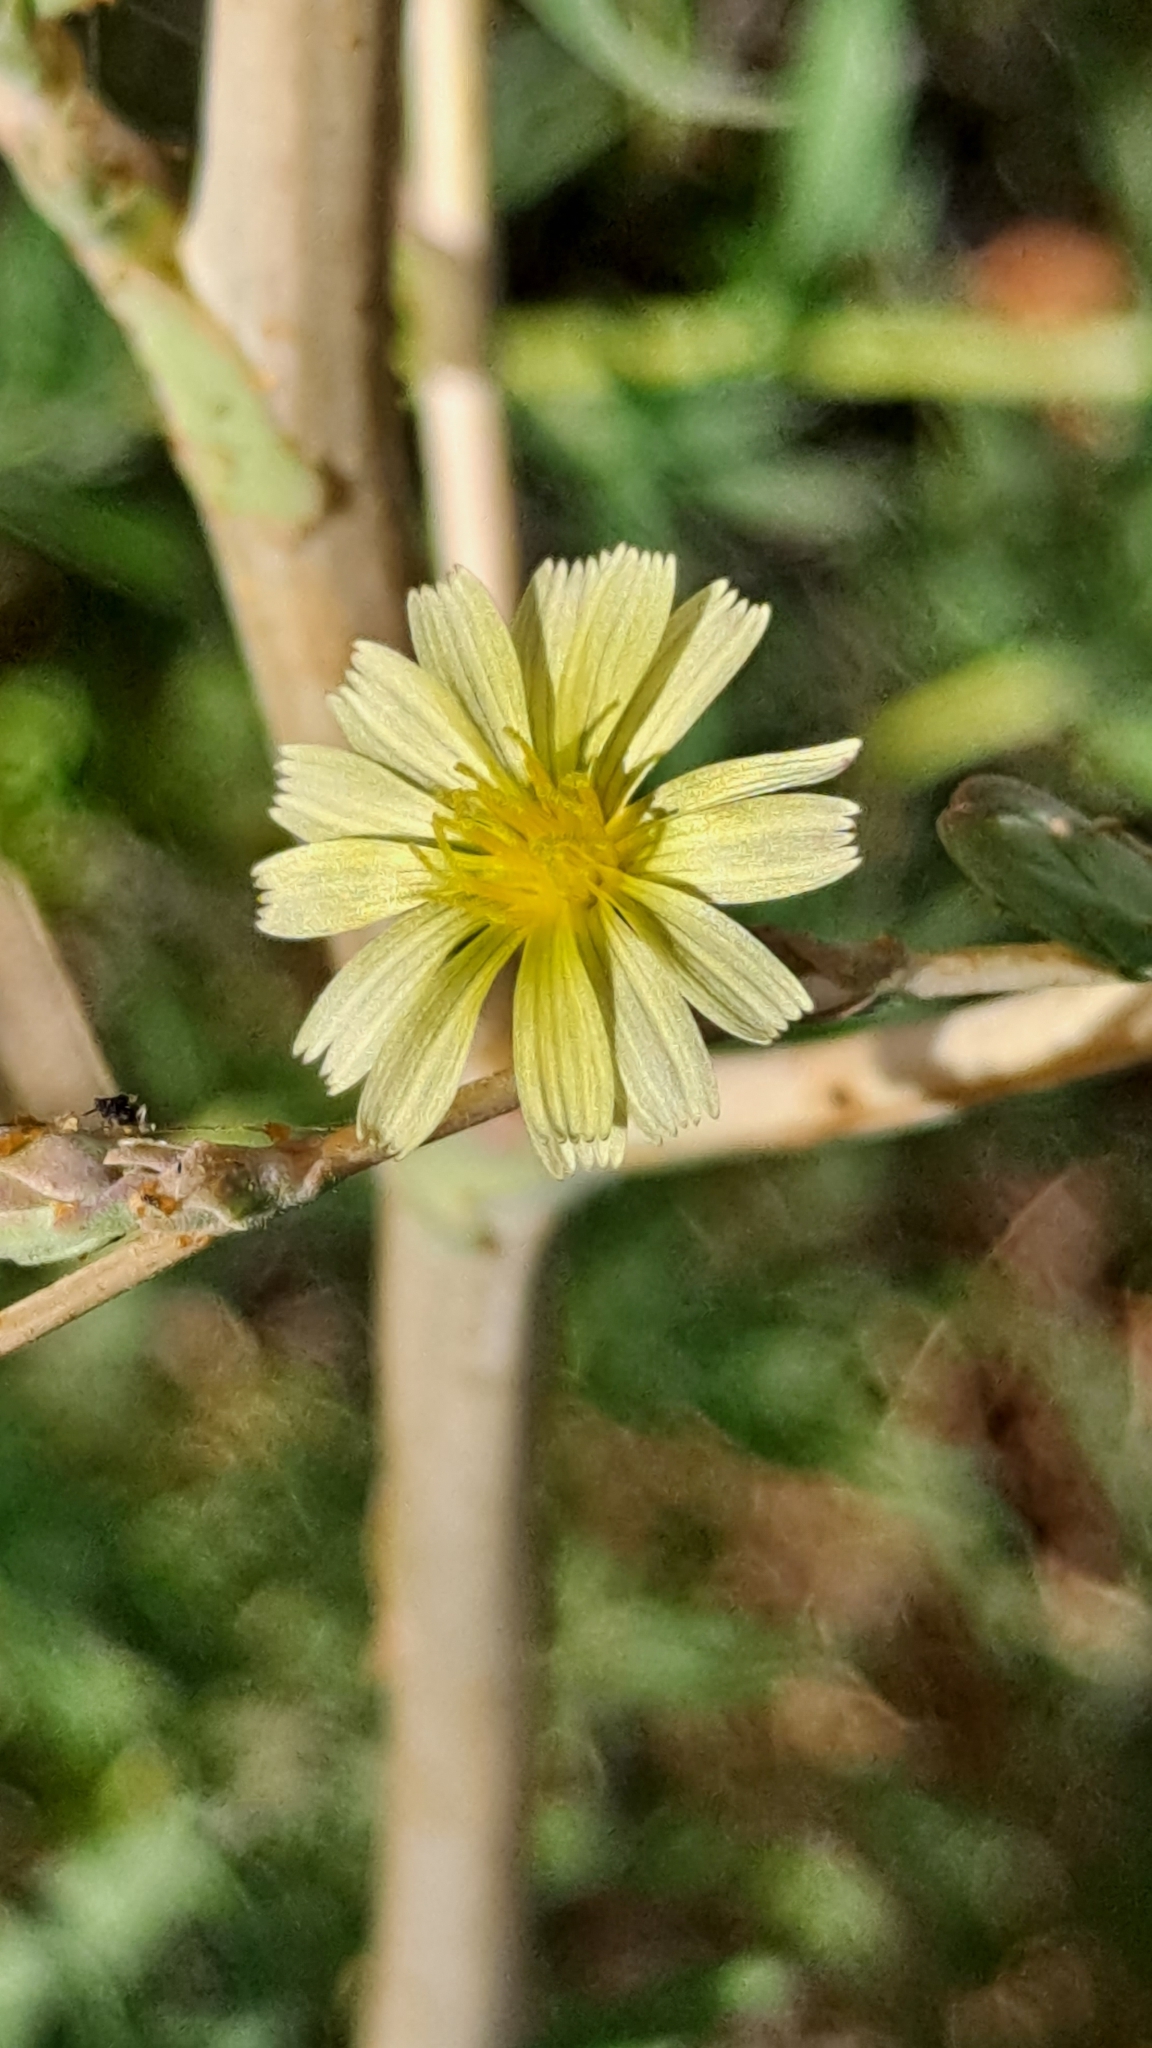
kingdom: Plantae
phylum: Tracheophyta
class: Magnoliopsida
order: Asterales
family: Asteraceae
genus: Lactuca
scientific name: Lactuca serriola
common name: Prickly lettuce
